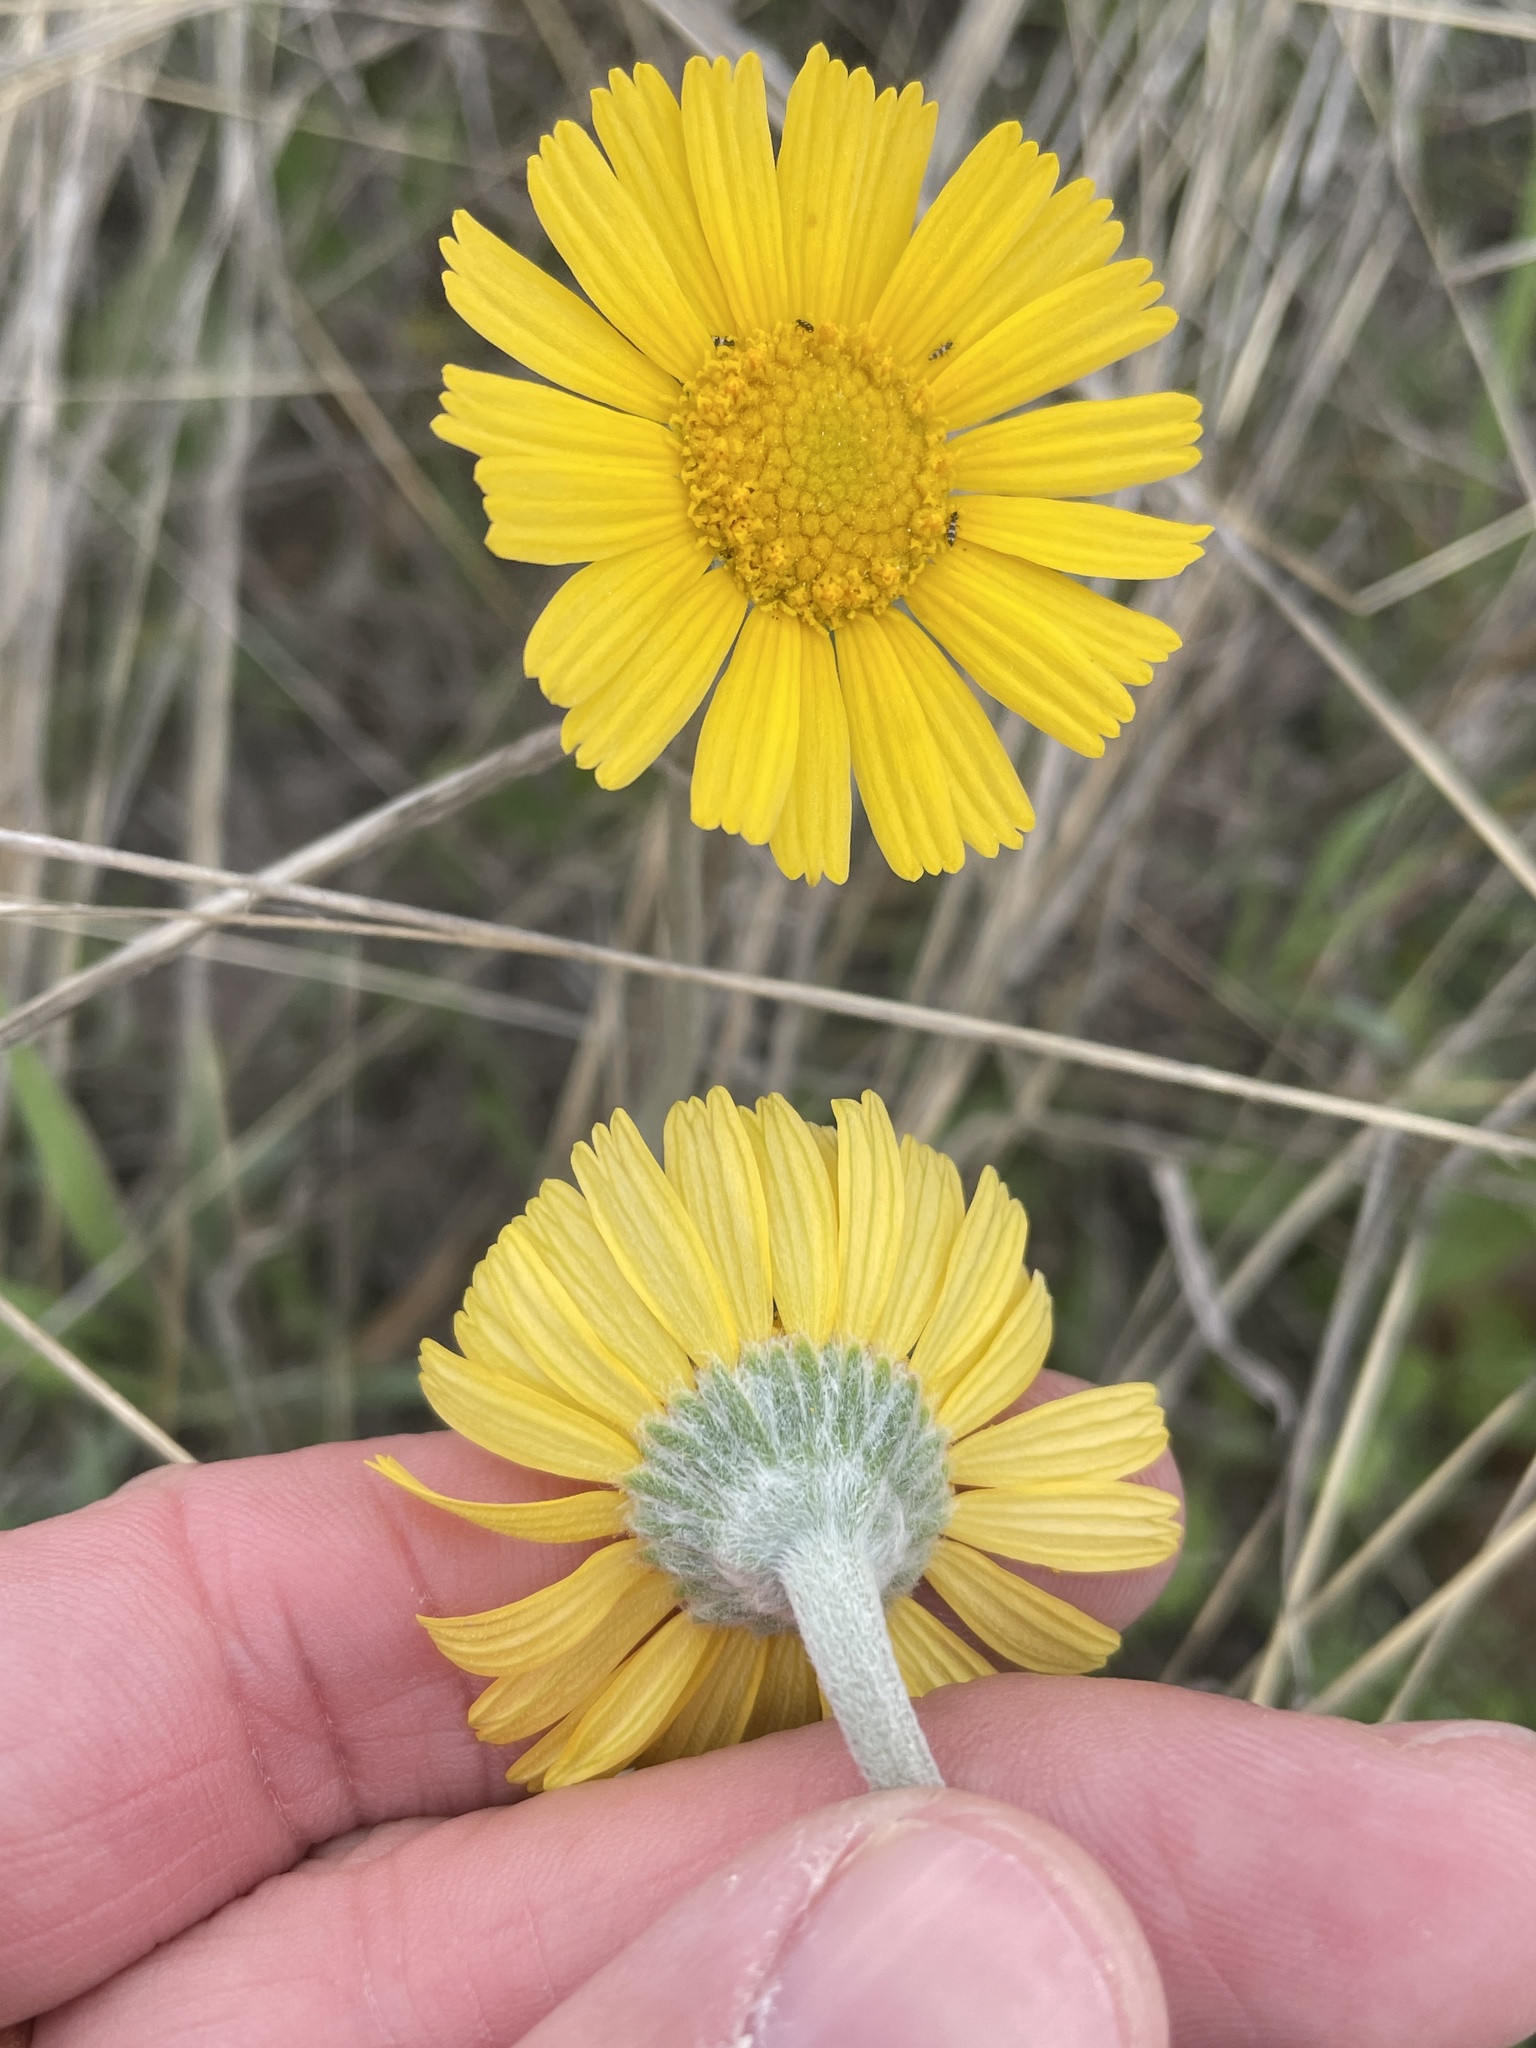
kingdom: Plantae
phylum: Tracheophyta
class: Magnoliopsida
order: Asterales
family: Asteraceae
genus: Tetraneuris
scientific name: Tetraneuris scaposa
